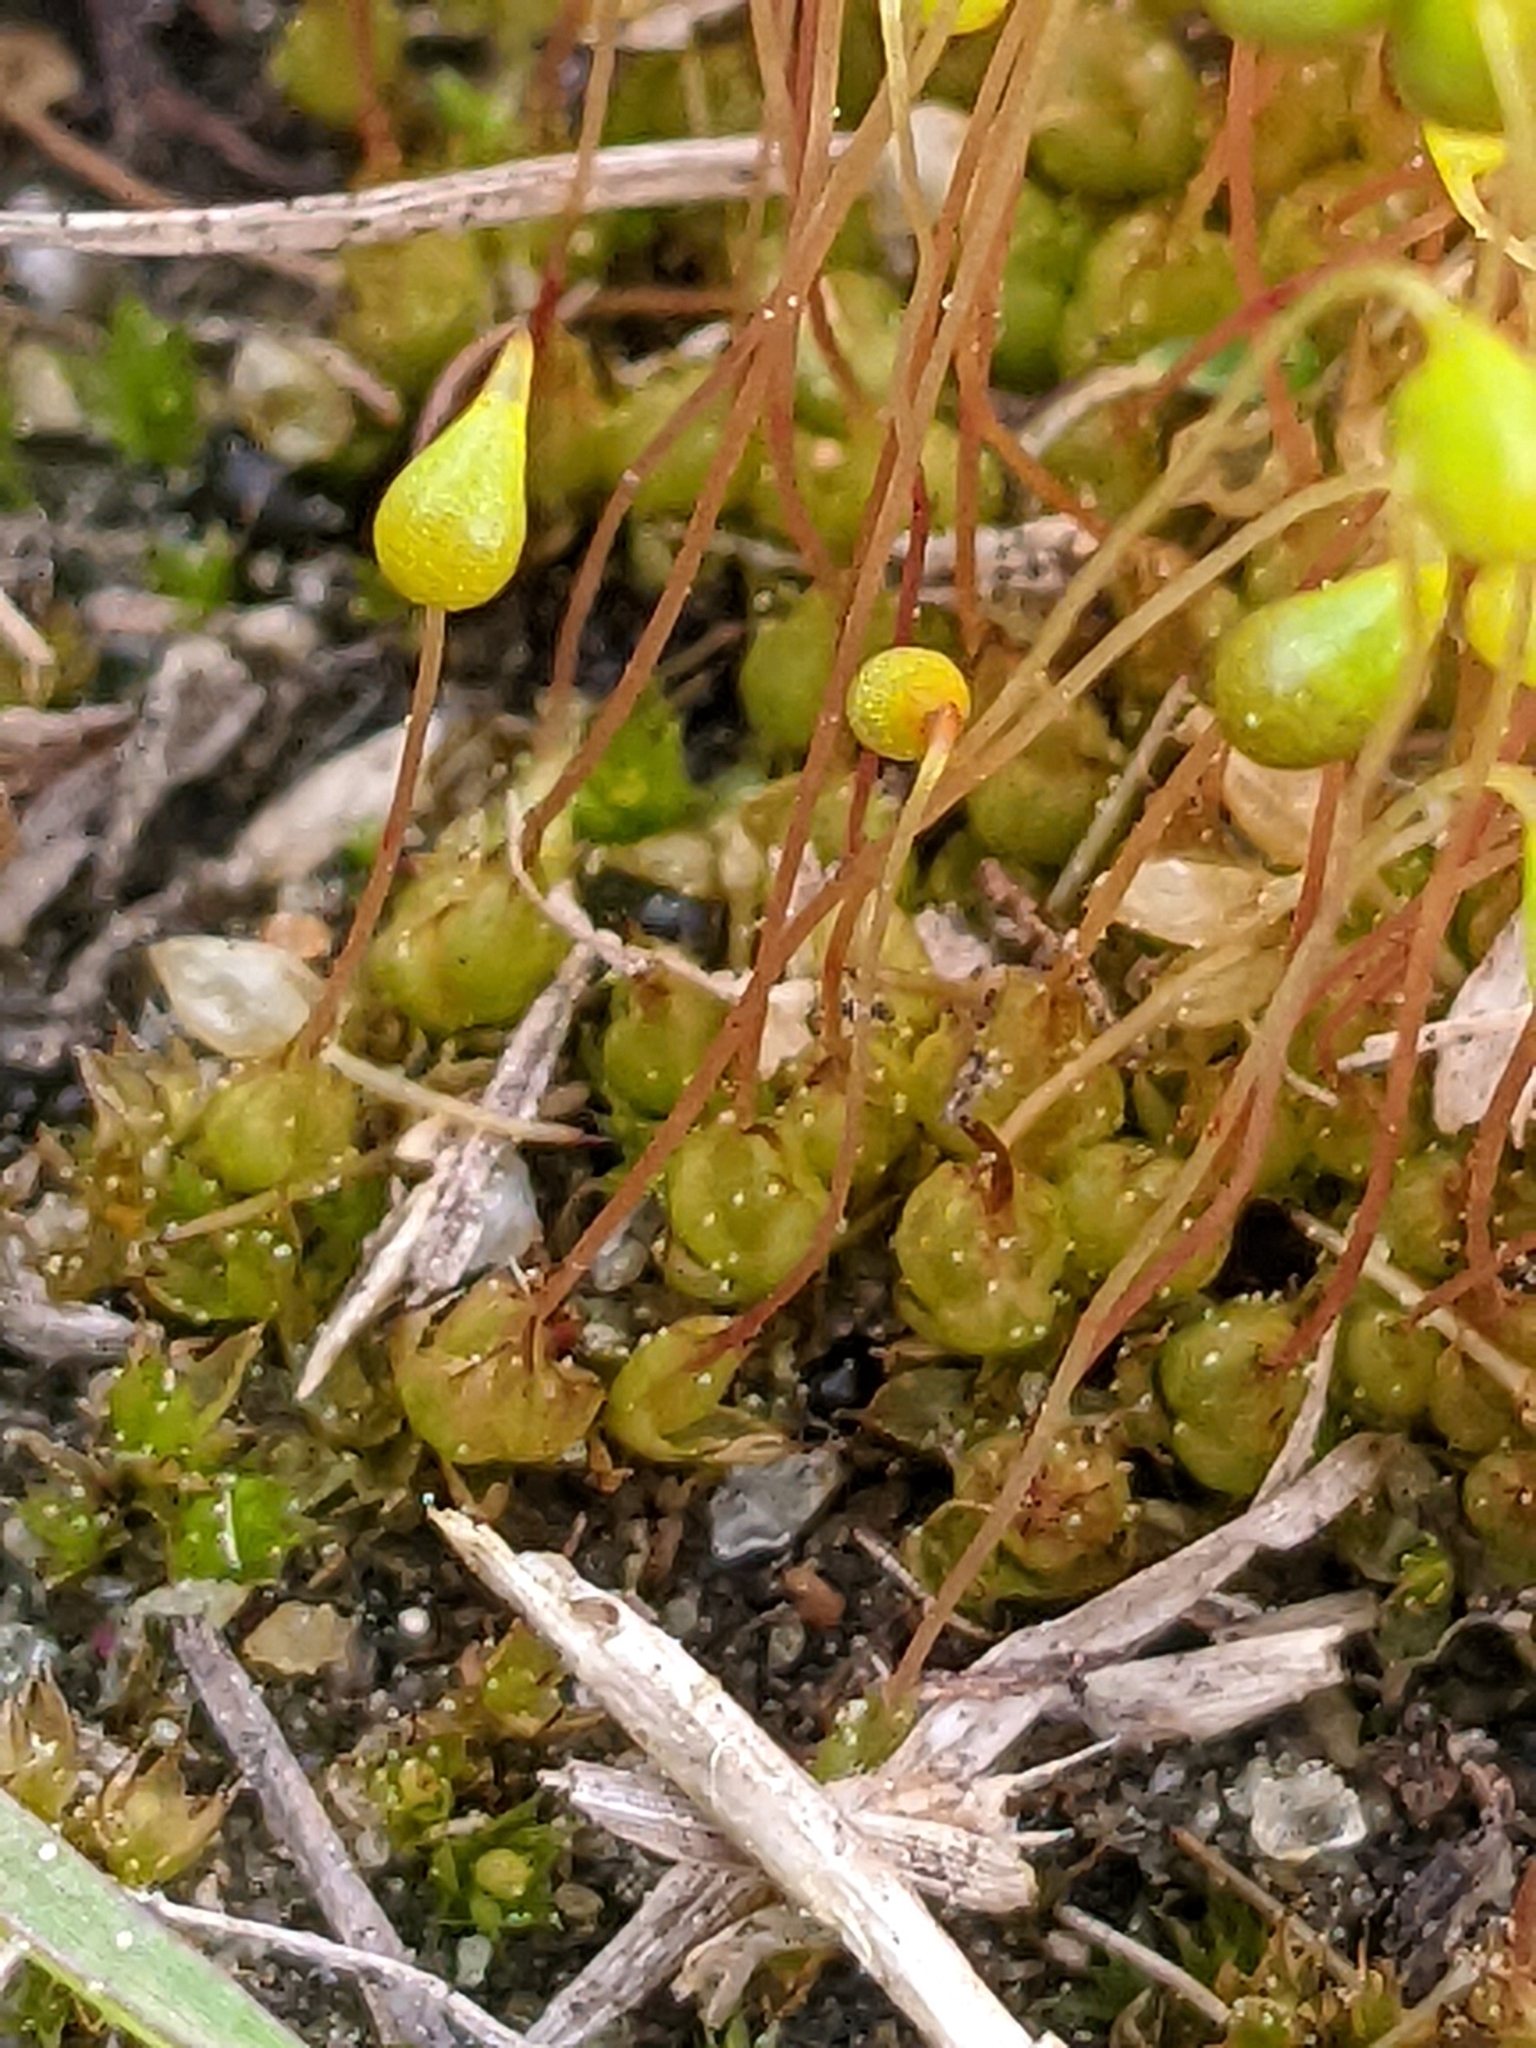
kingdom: Plantae
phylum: Bryophyta
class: Bryopsida
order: Funariales
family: Funariaceae
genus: Funaria
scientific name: Funaria hygrometrica
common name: Common cord moss
